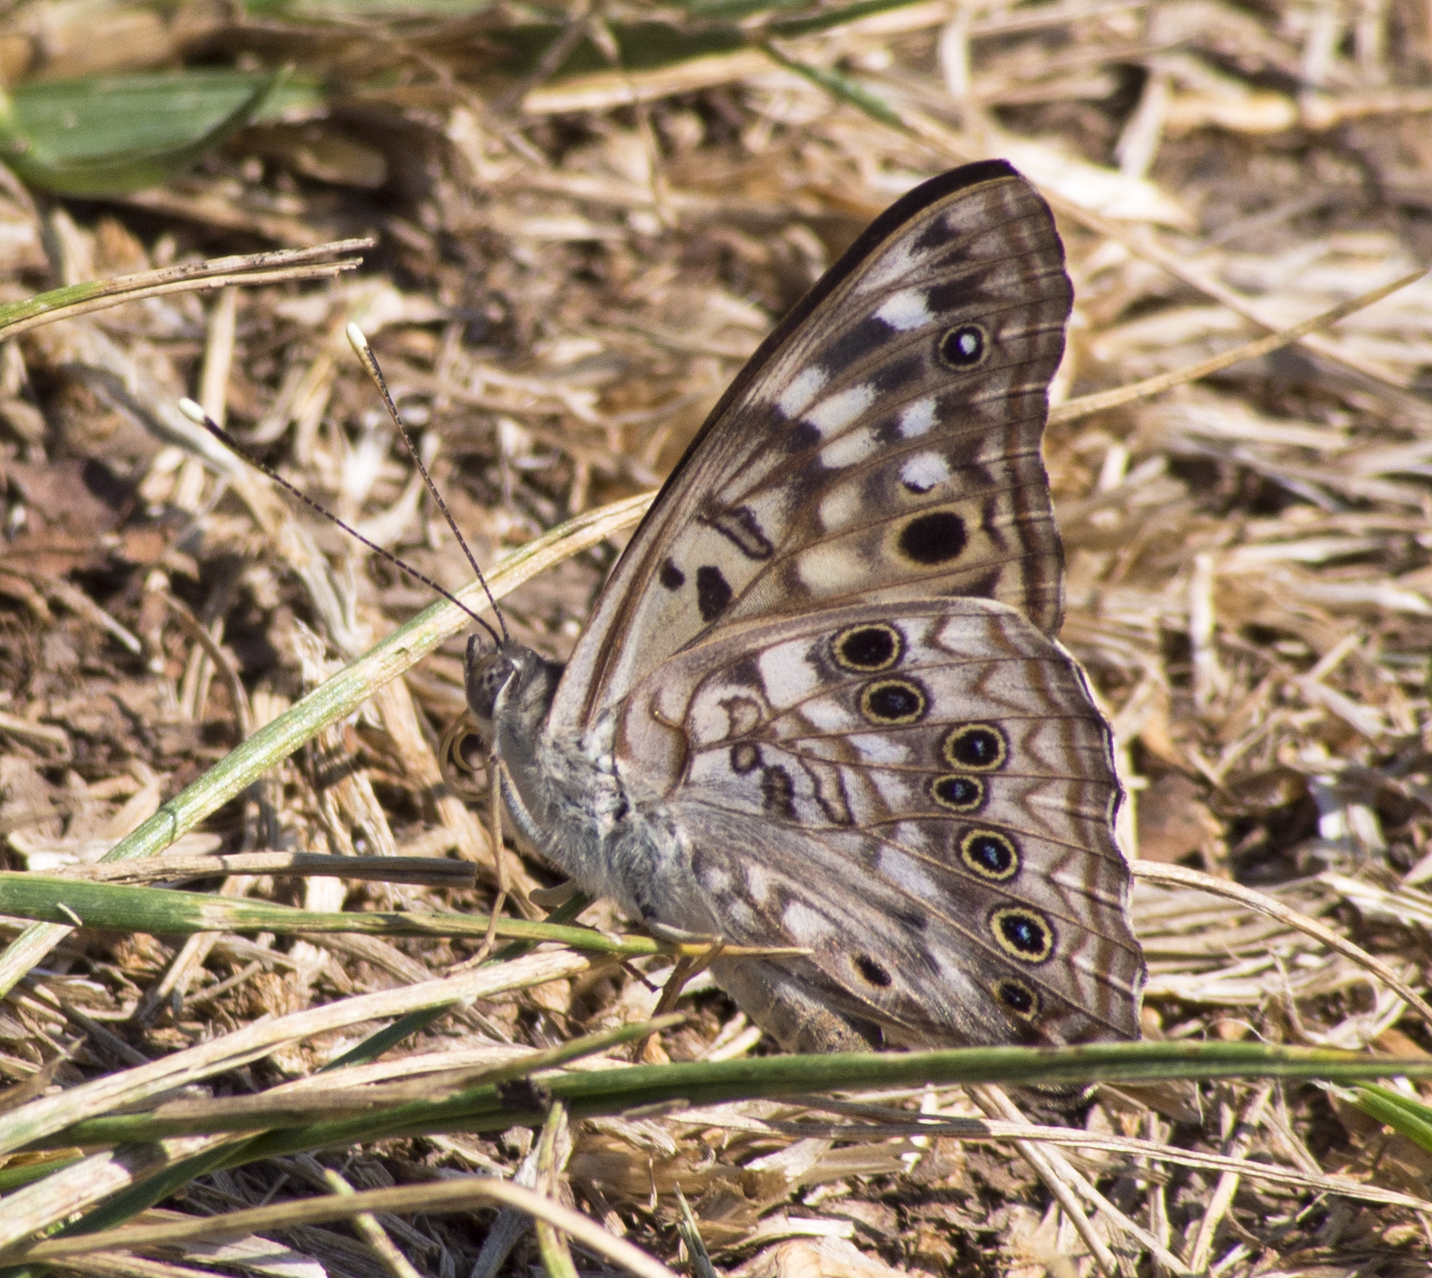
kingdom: Animalia
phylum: Arthropoda
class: Insecta
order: Lepidoptera
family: Nymphalidae
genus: Asterocampa
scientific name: Asterocampa celtis
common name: Hackberry emperor
